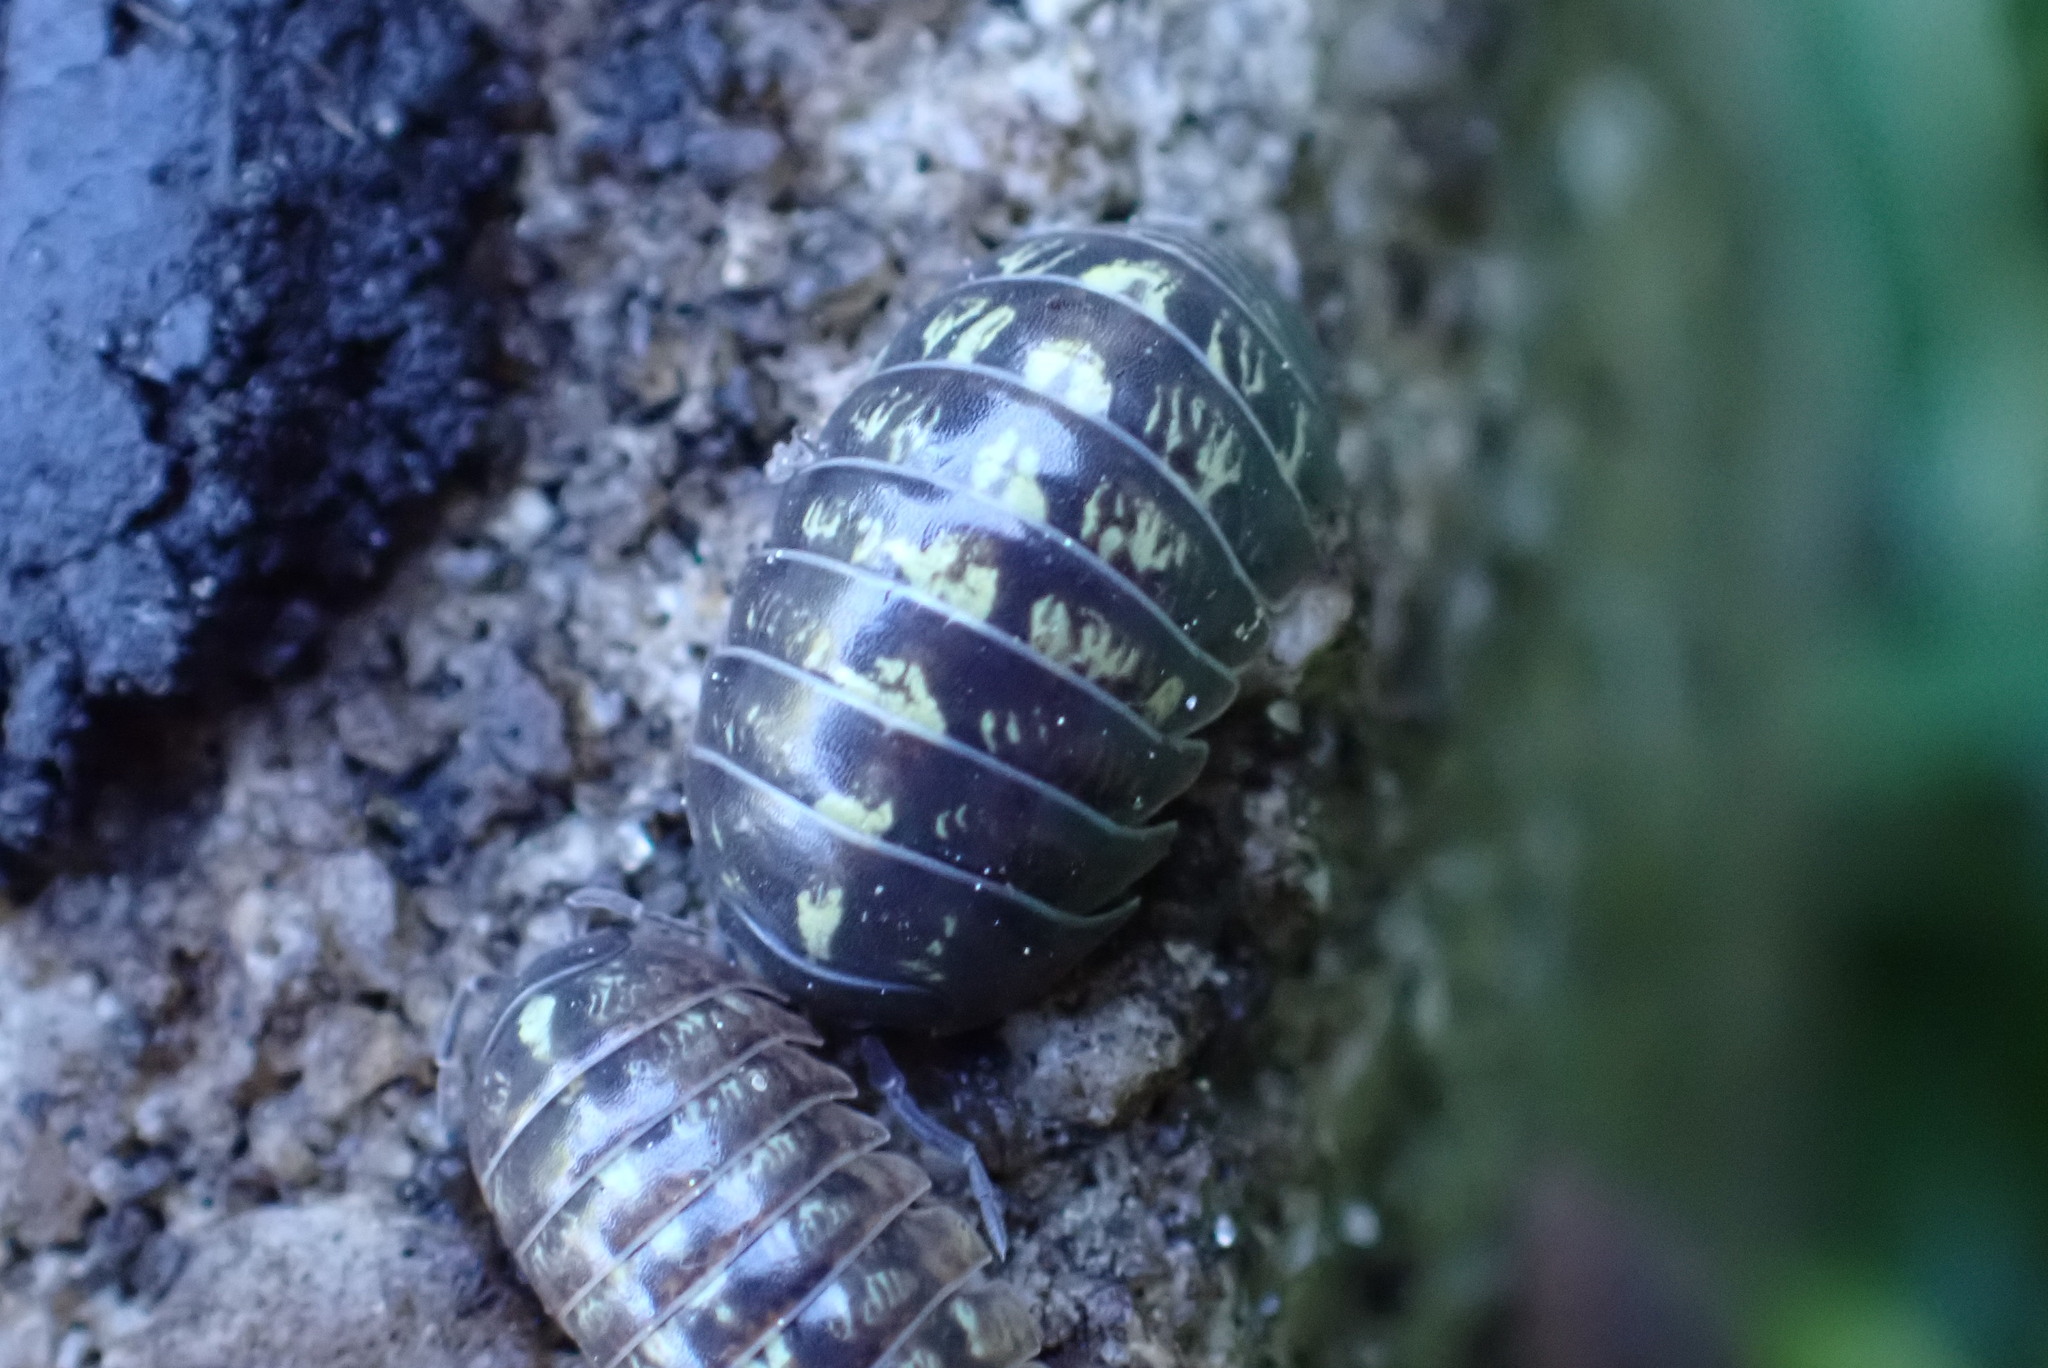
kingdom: Animalia
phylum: Arthropoda
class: Malacostraca
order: Isopoda
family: Armadillidiidae
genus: Armadillidium
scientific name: Armadillidium vulgare
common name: Common pill woodlouse
